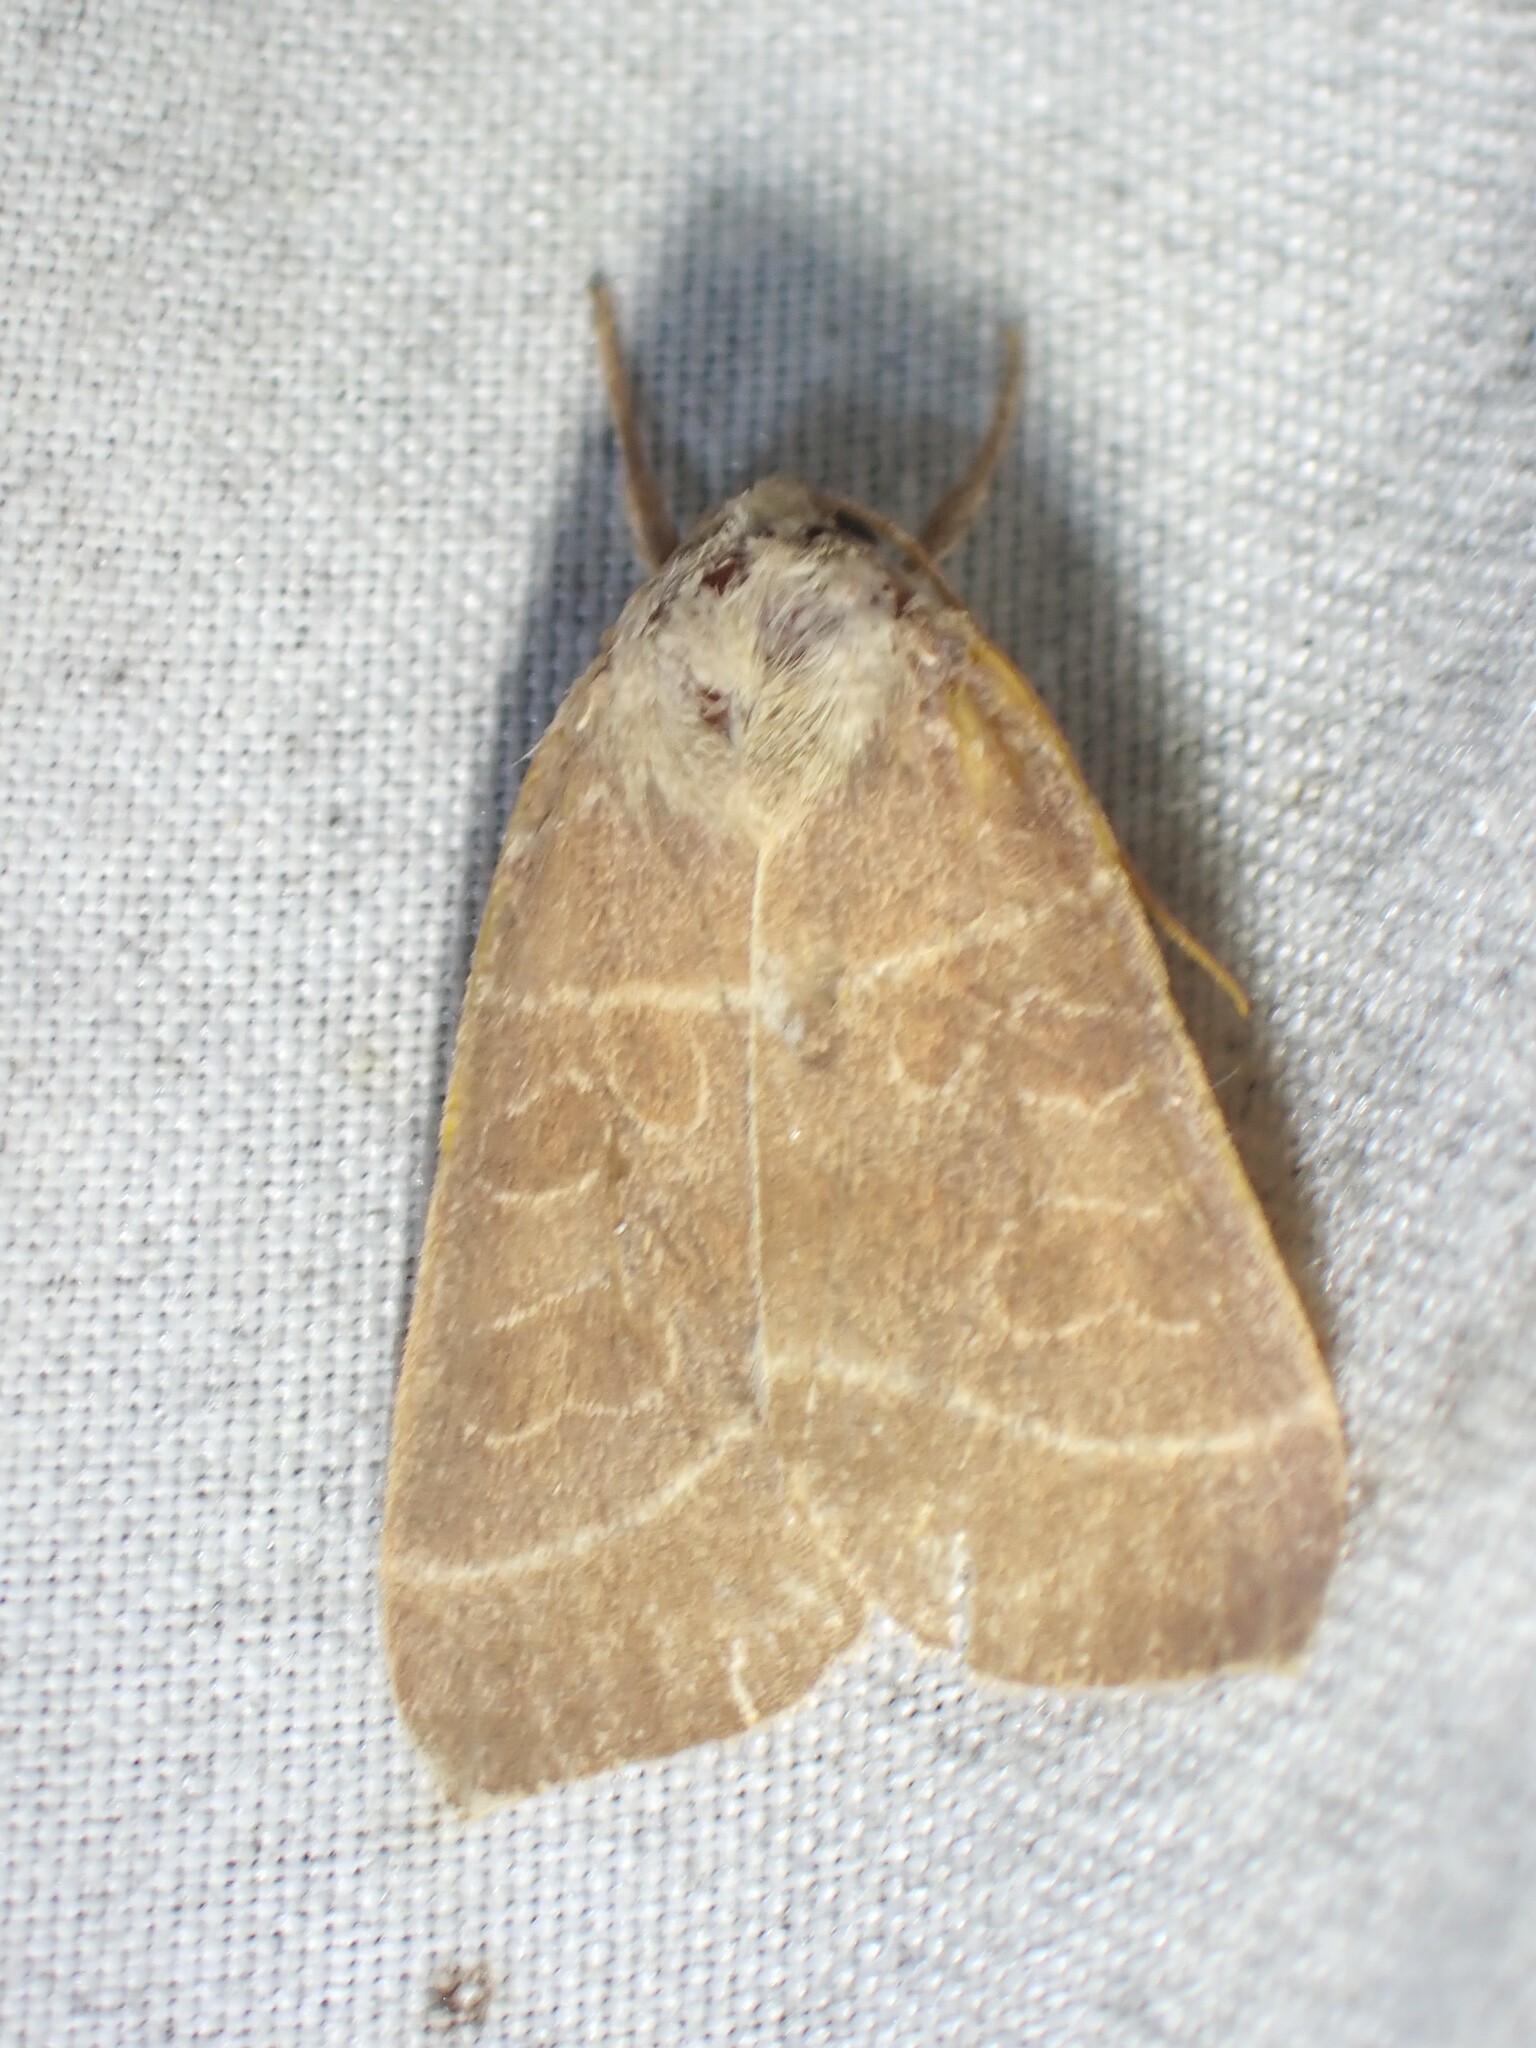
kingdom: Animalia
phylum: Arthropoda
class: Insecta
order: Lepidoptera
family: Noctuidae
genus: Ipimorpha
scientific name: Ipimorpha pleonectusa
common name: Even-lined sallow
